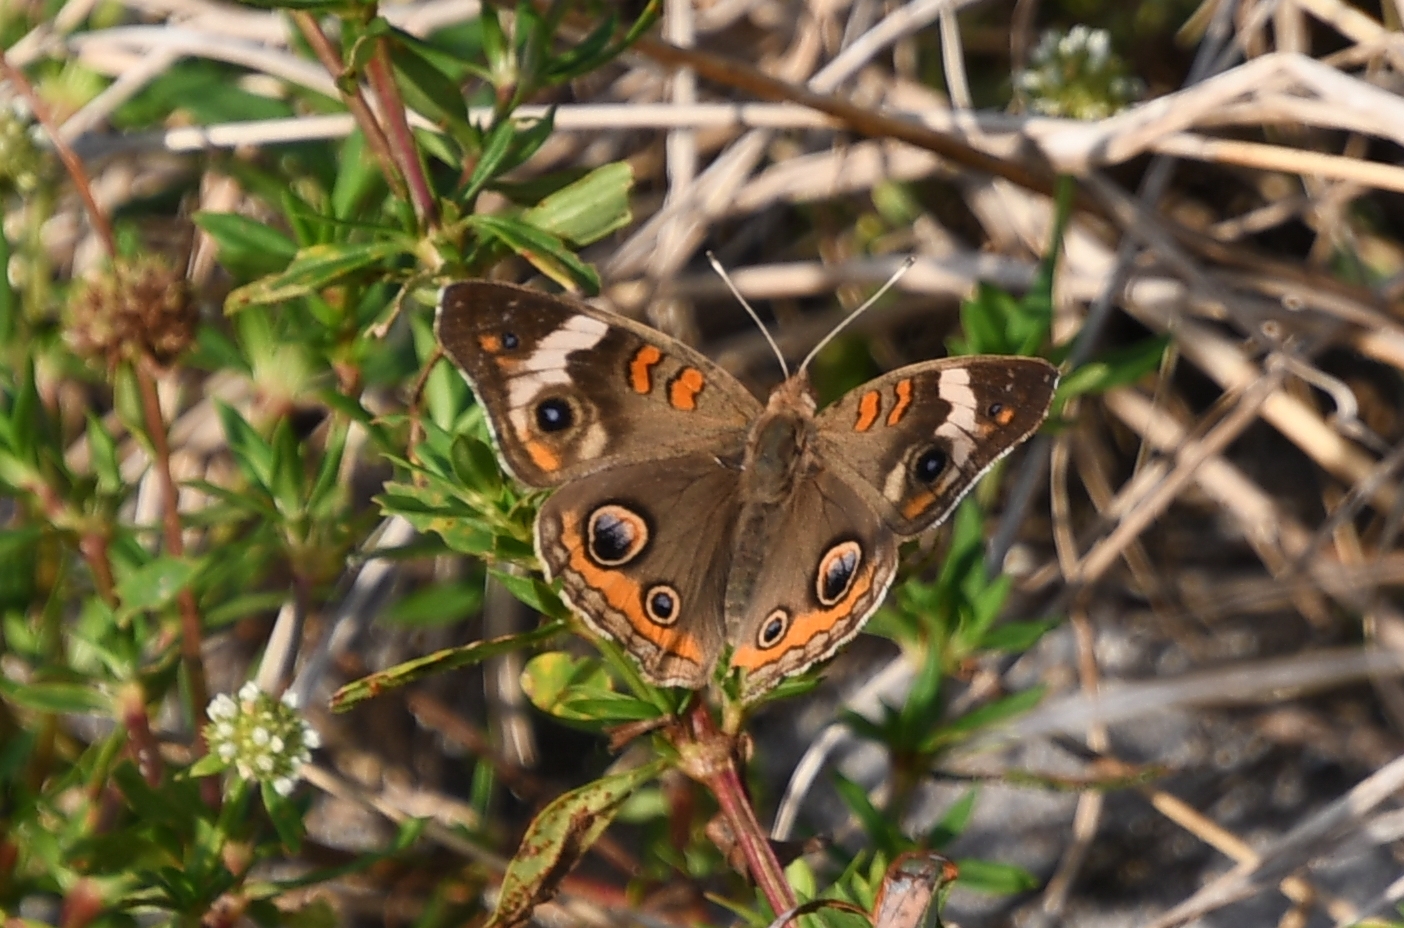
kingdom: Animalia
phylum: Arthropoda
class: Insecta
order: Lepidoptera
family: Nymphalidae
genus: Junonia
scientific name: Junonia coenia
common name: Common buckeye
